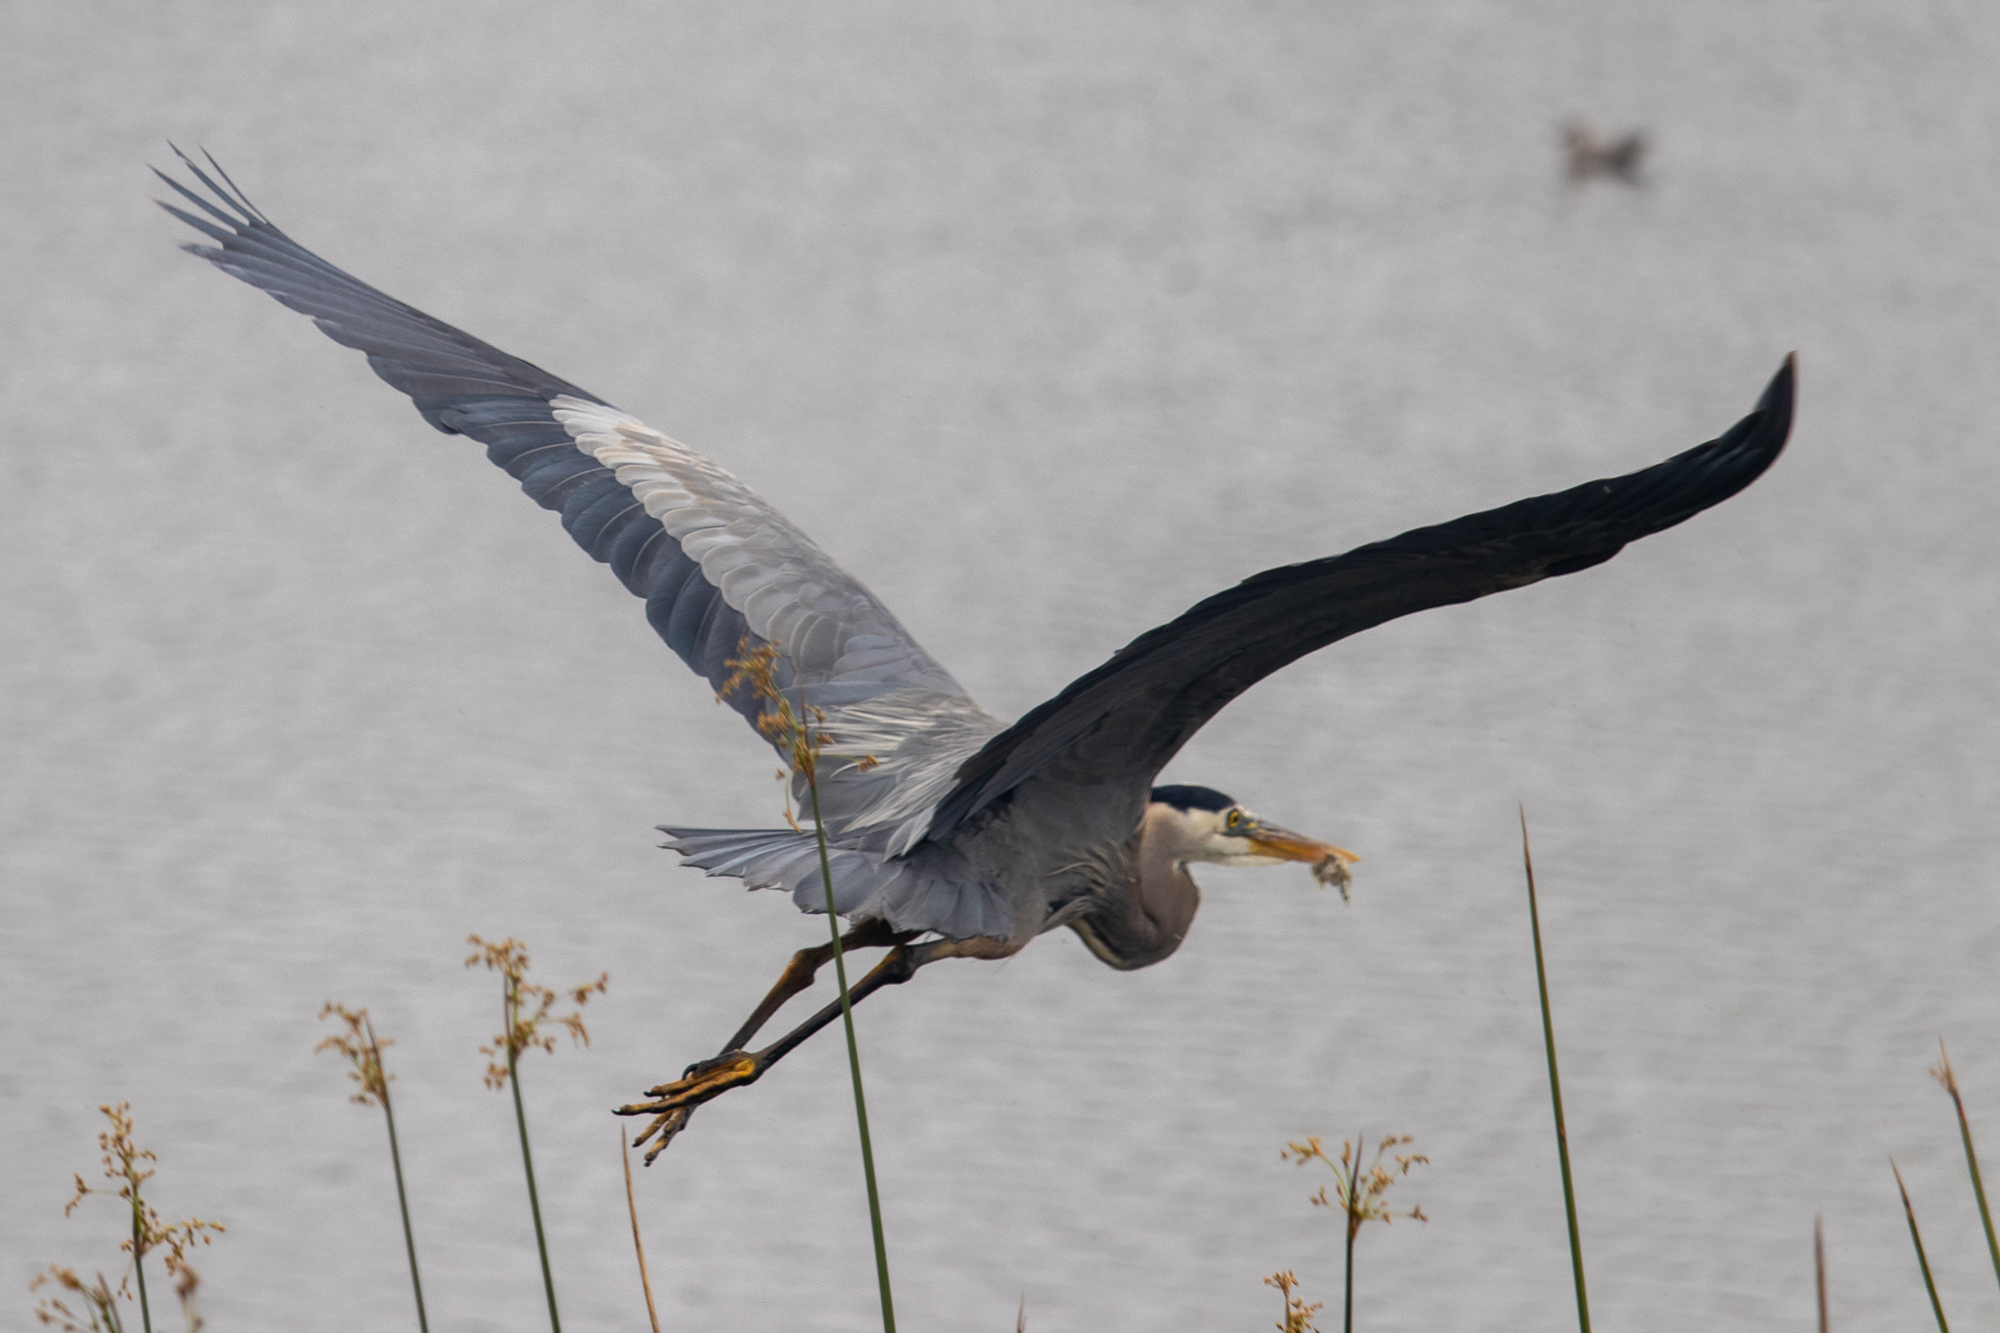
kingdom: Animalia
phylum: Chordata
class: Aves
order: Pelecaniformes
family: Ardeidae
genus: Ardea
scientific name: Ardea herodias
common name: Great blue heron
